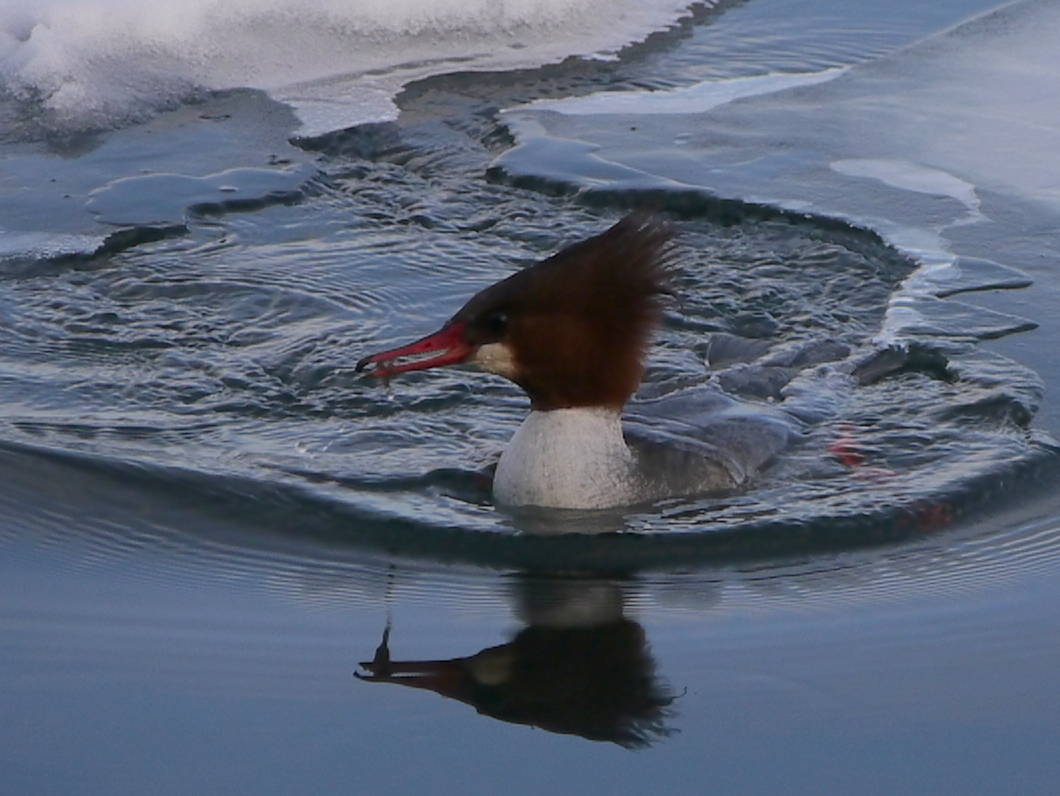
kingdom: Animalia
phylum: Chordata
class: Aves
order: Anseriformes
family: Anatidae
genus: Mergus
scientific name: Mergus merganser
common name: Common merganser
